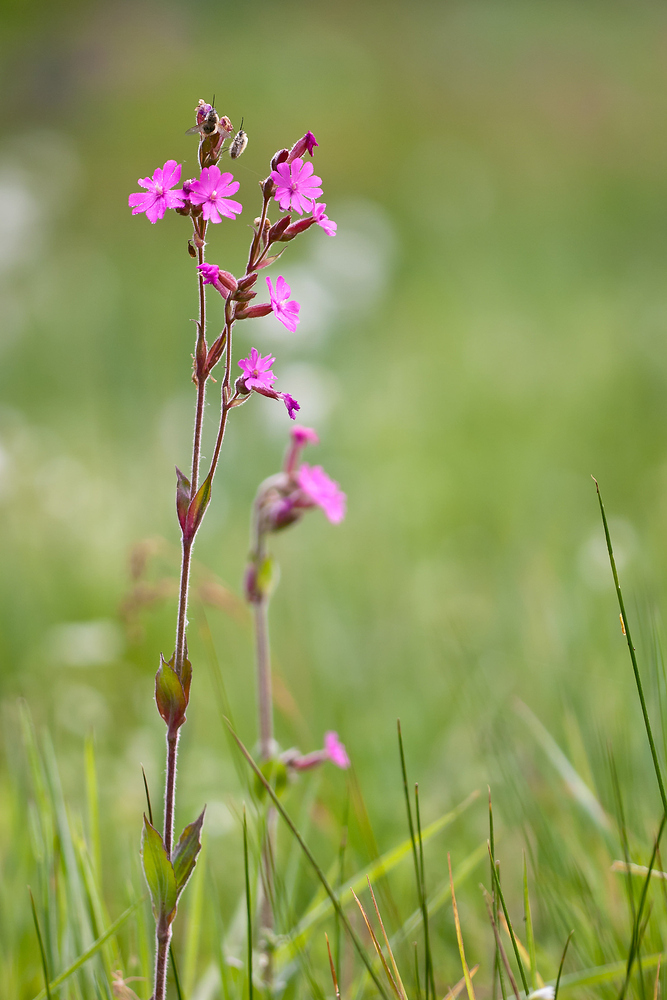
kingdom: Plantae
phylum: Tracheophyta
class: Magnoliopsida
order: Caryophyllales
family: Caryophyllaceae
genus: Silene
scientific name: Silene dioica
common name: Red campion
